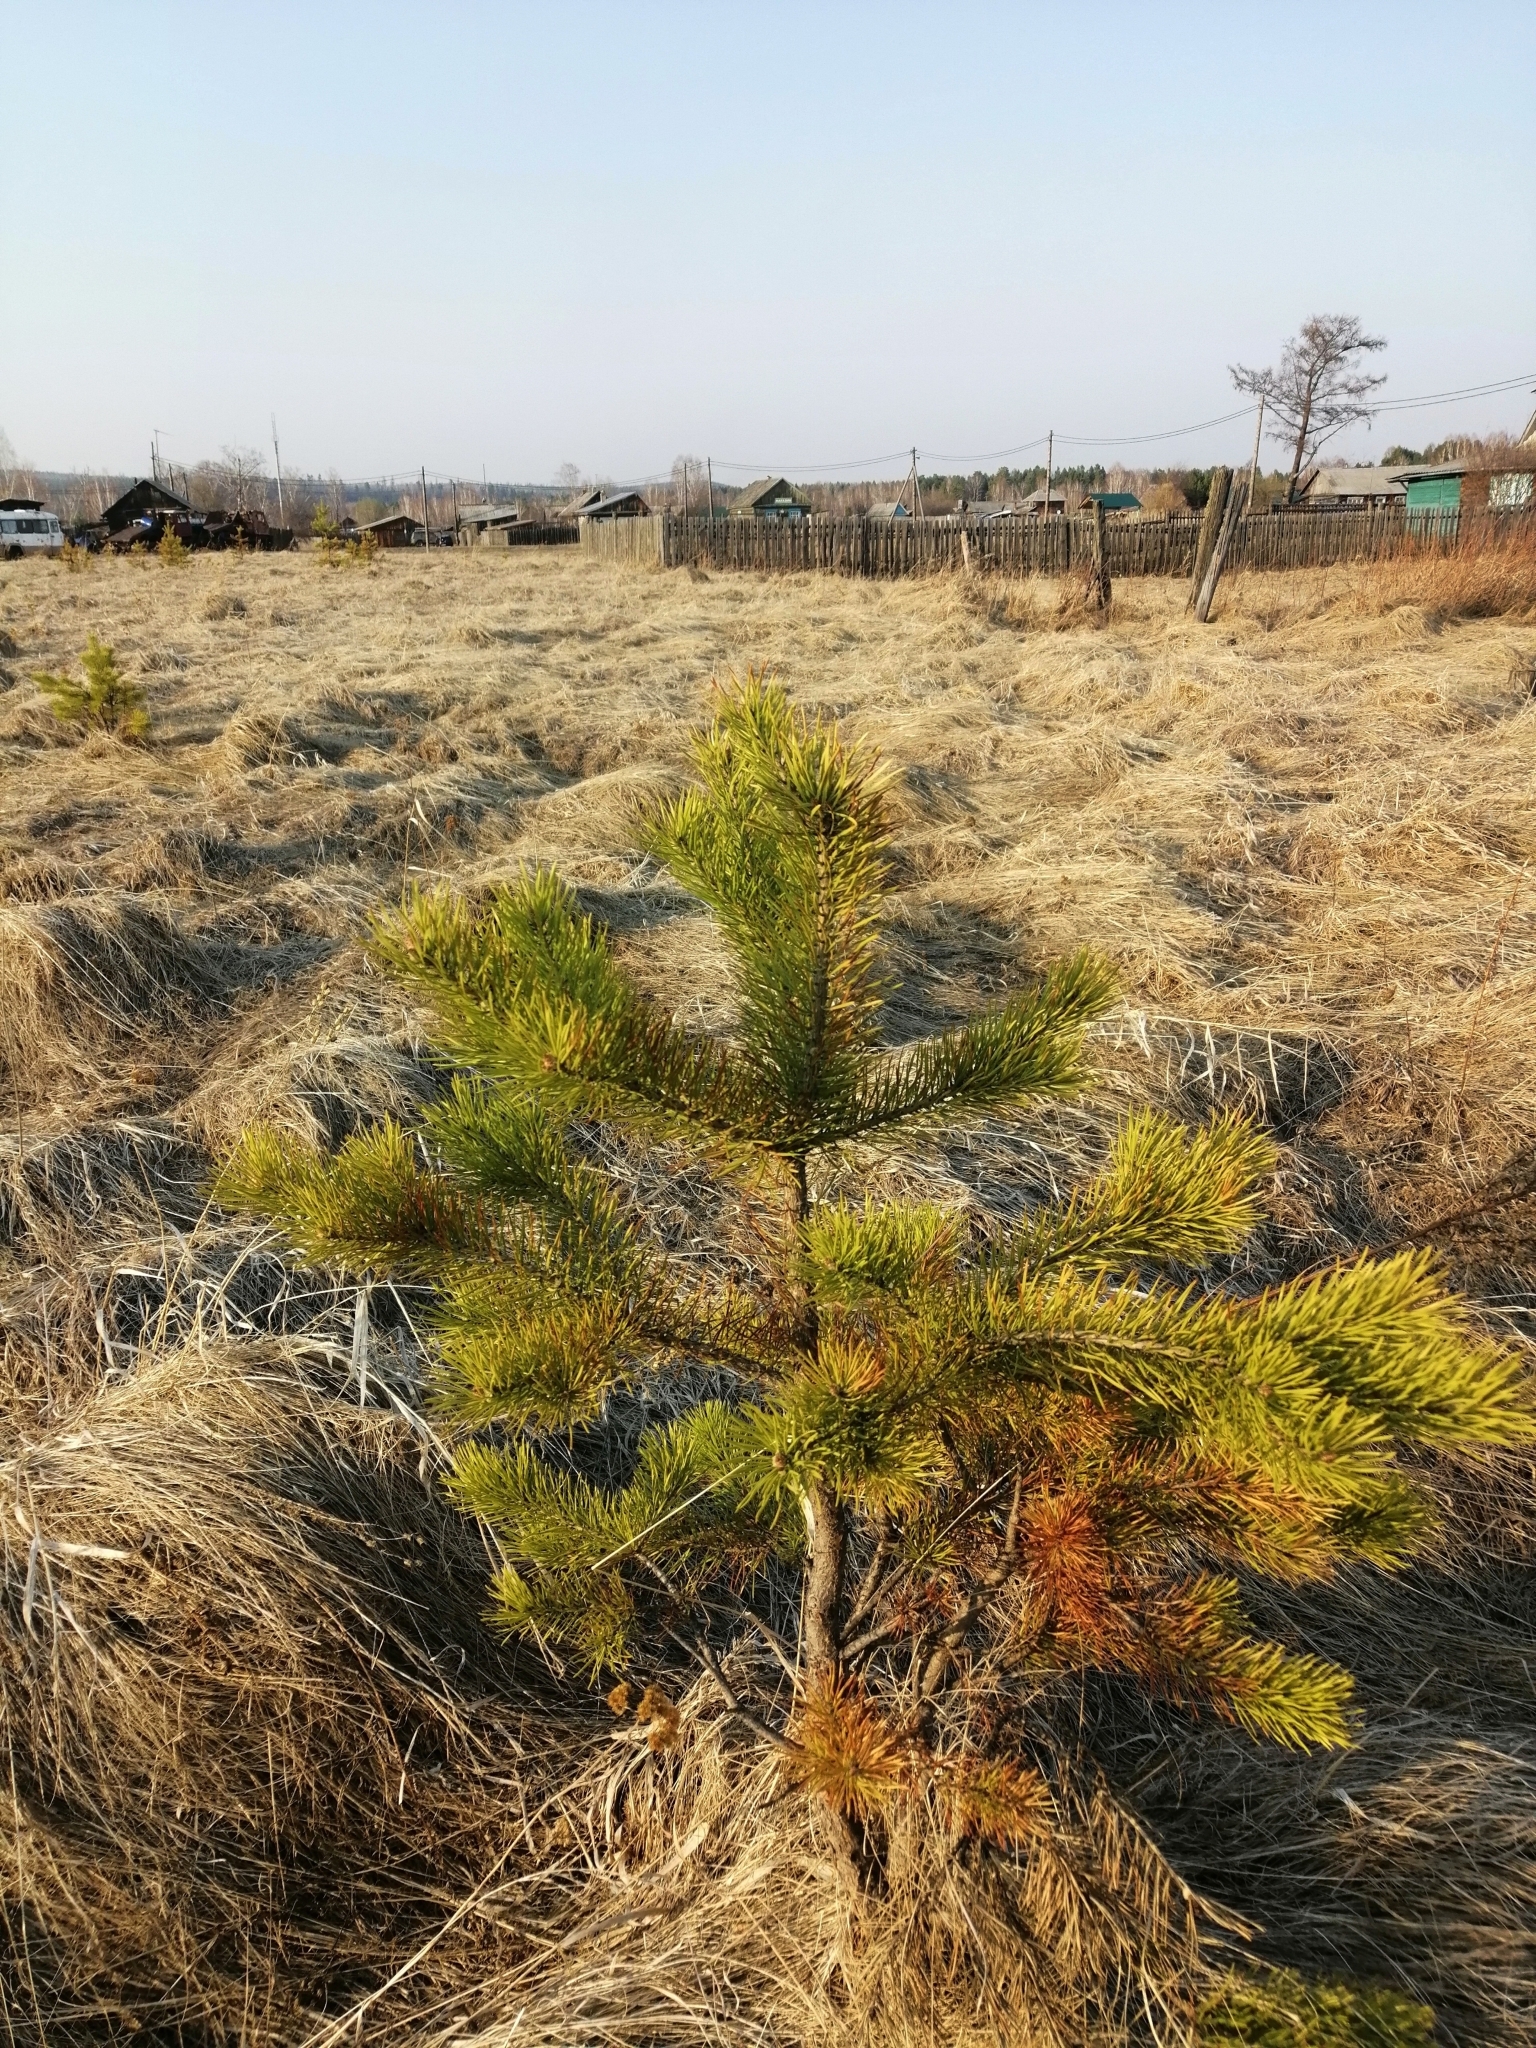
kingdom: Plantae
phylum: Tracheophyta
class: Pinopsida
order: Pinales
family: Pinaceae
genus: Pinus
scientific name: Pinus sylvestris
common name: Scots pine
